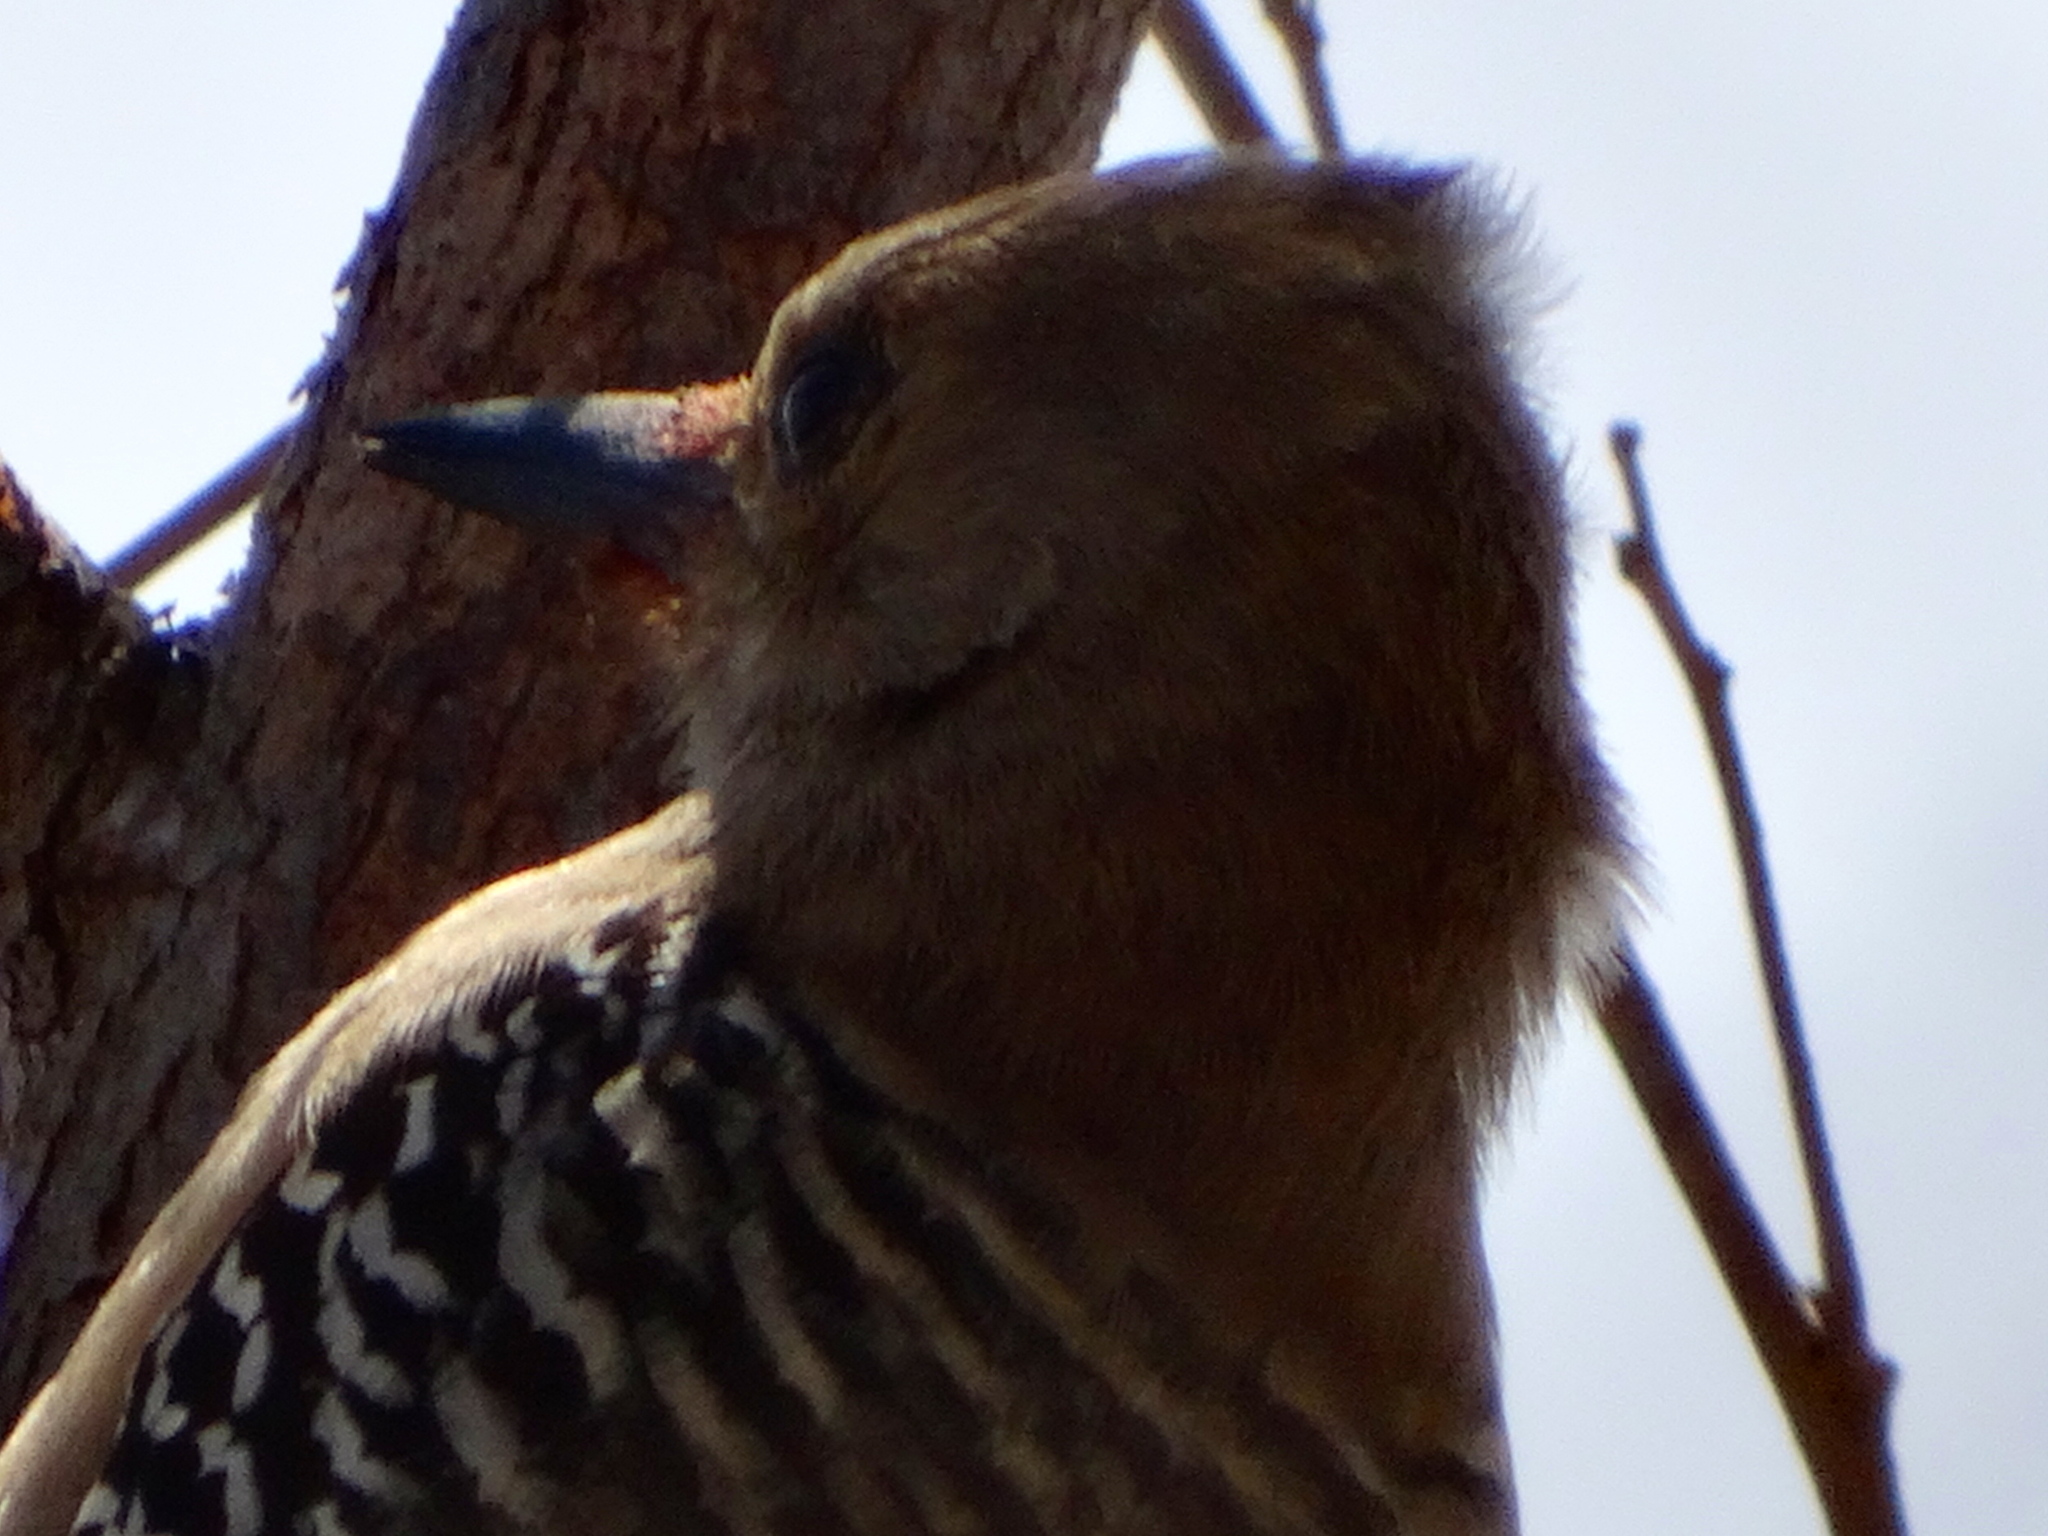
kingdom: Animalia
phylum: Chordata
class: Aves
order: Piciformes
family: Picidae
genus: Melanerpes
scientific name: Melanerpes uropygialis
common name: Gila woodpecker
